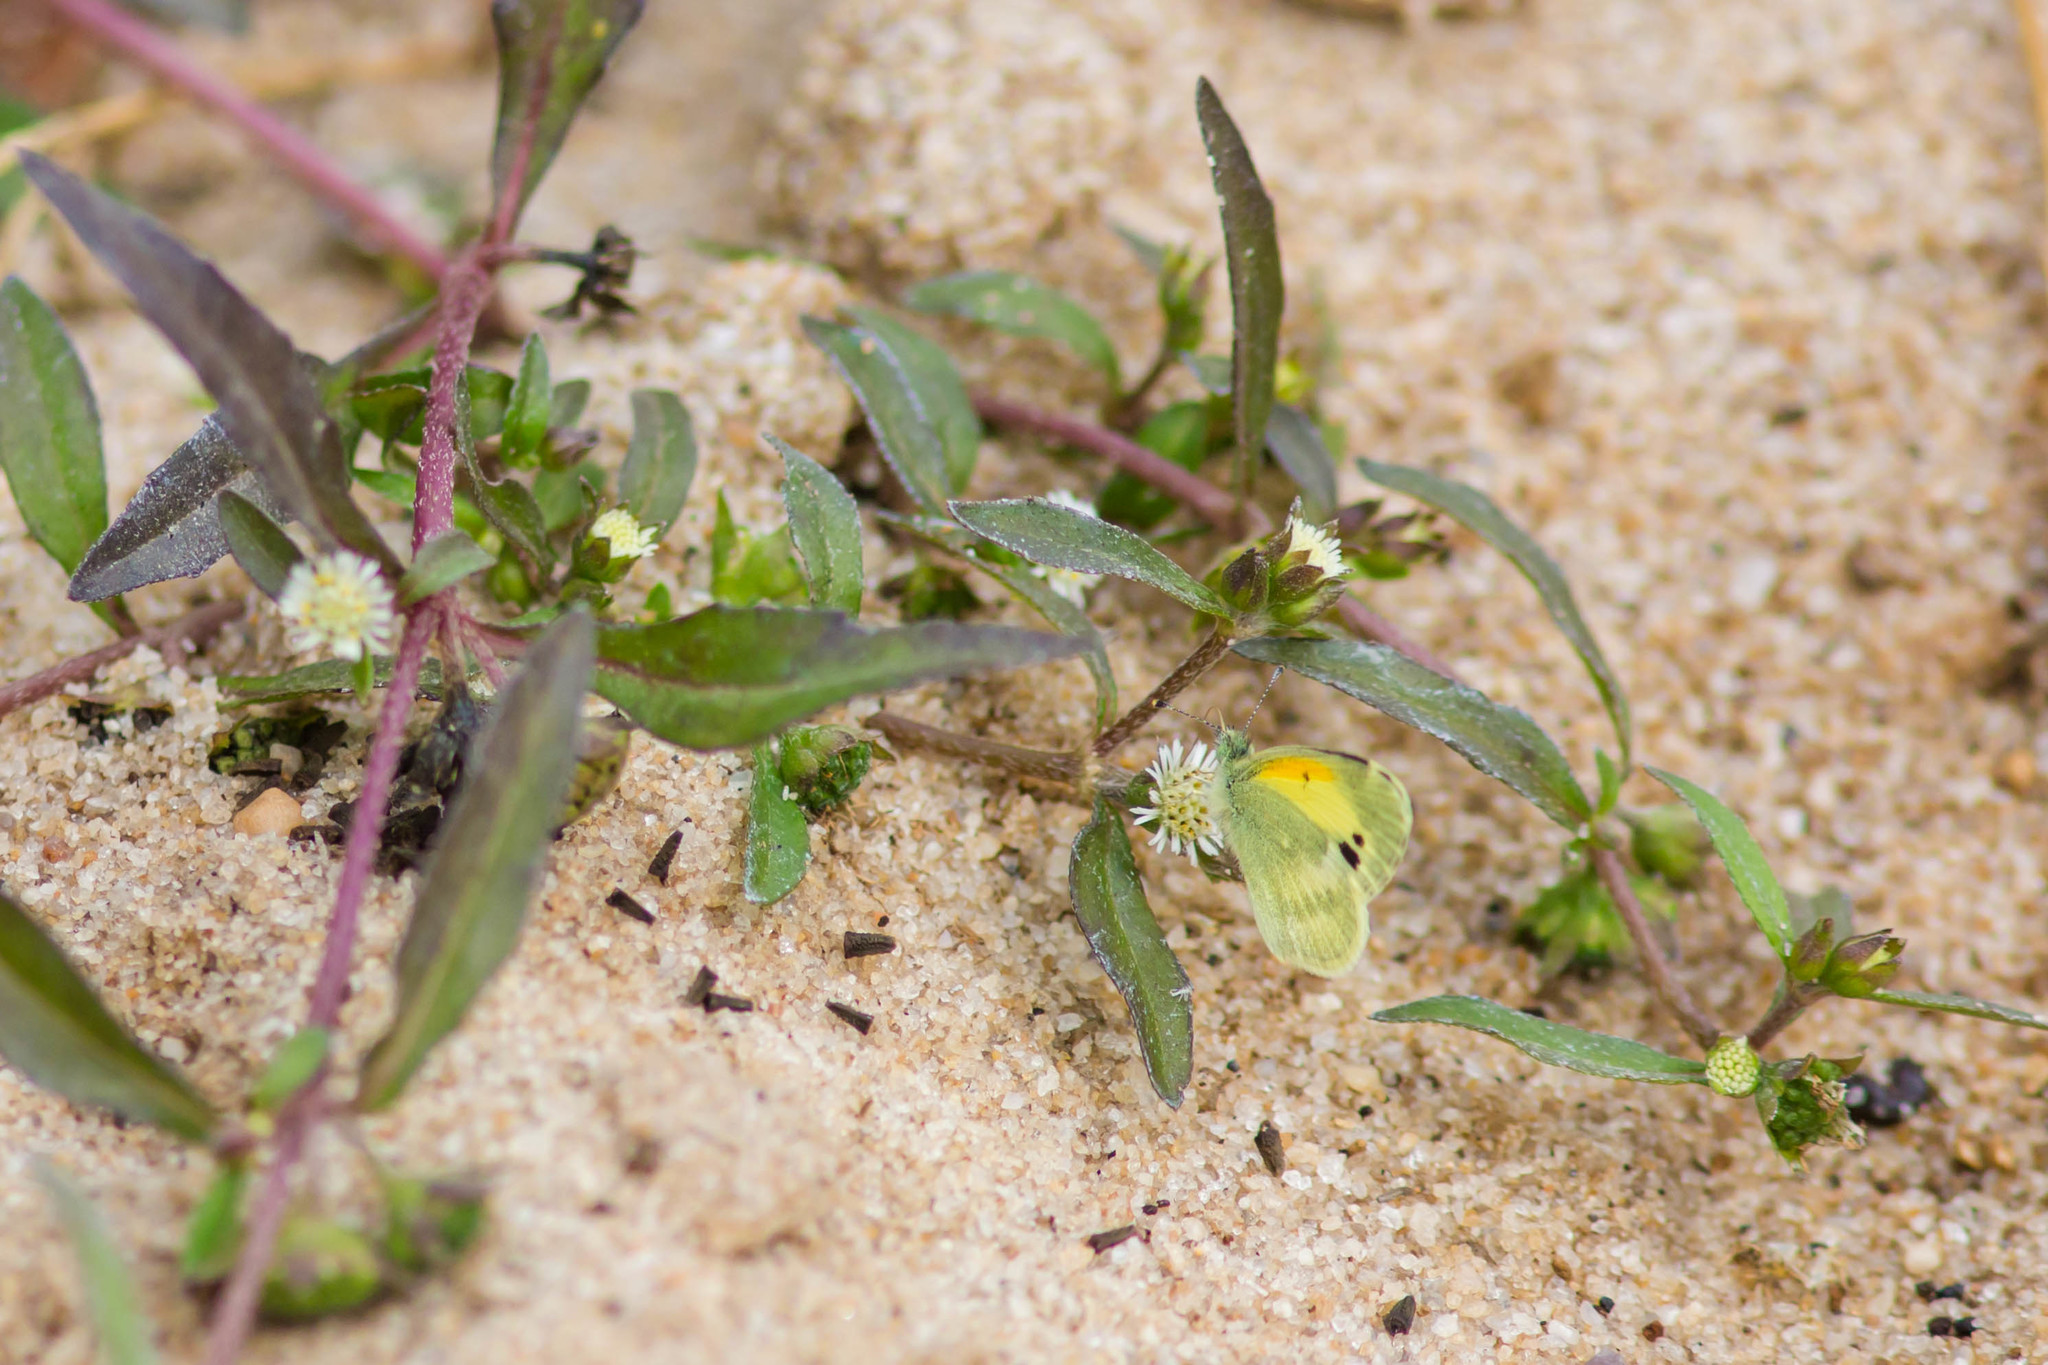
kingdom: Animalia
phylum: Arthropoda
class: Insecta
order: Lepidoptera
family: Pieridae
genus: Nathalis
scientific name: Nathalis iole
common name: Dainty sulphur
